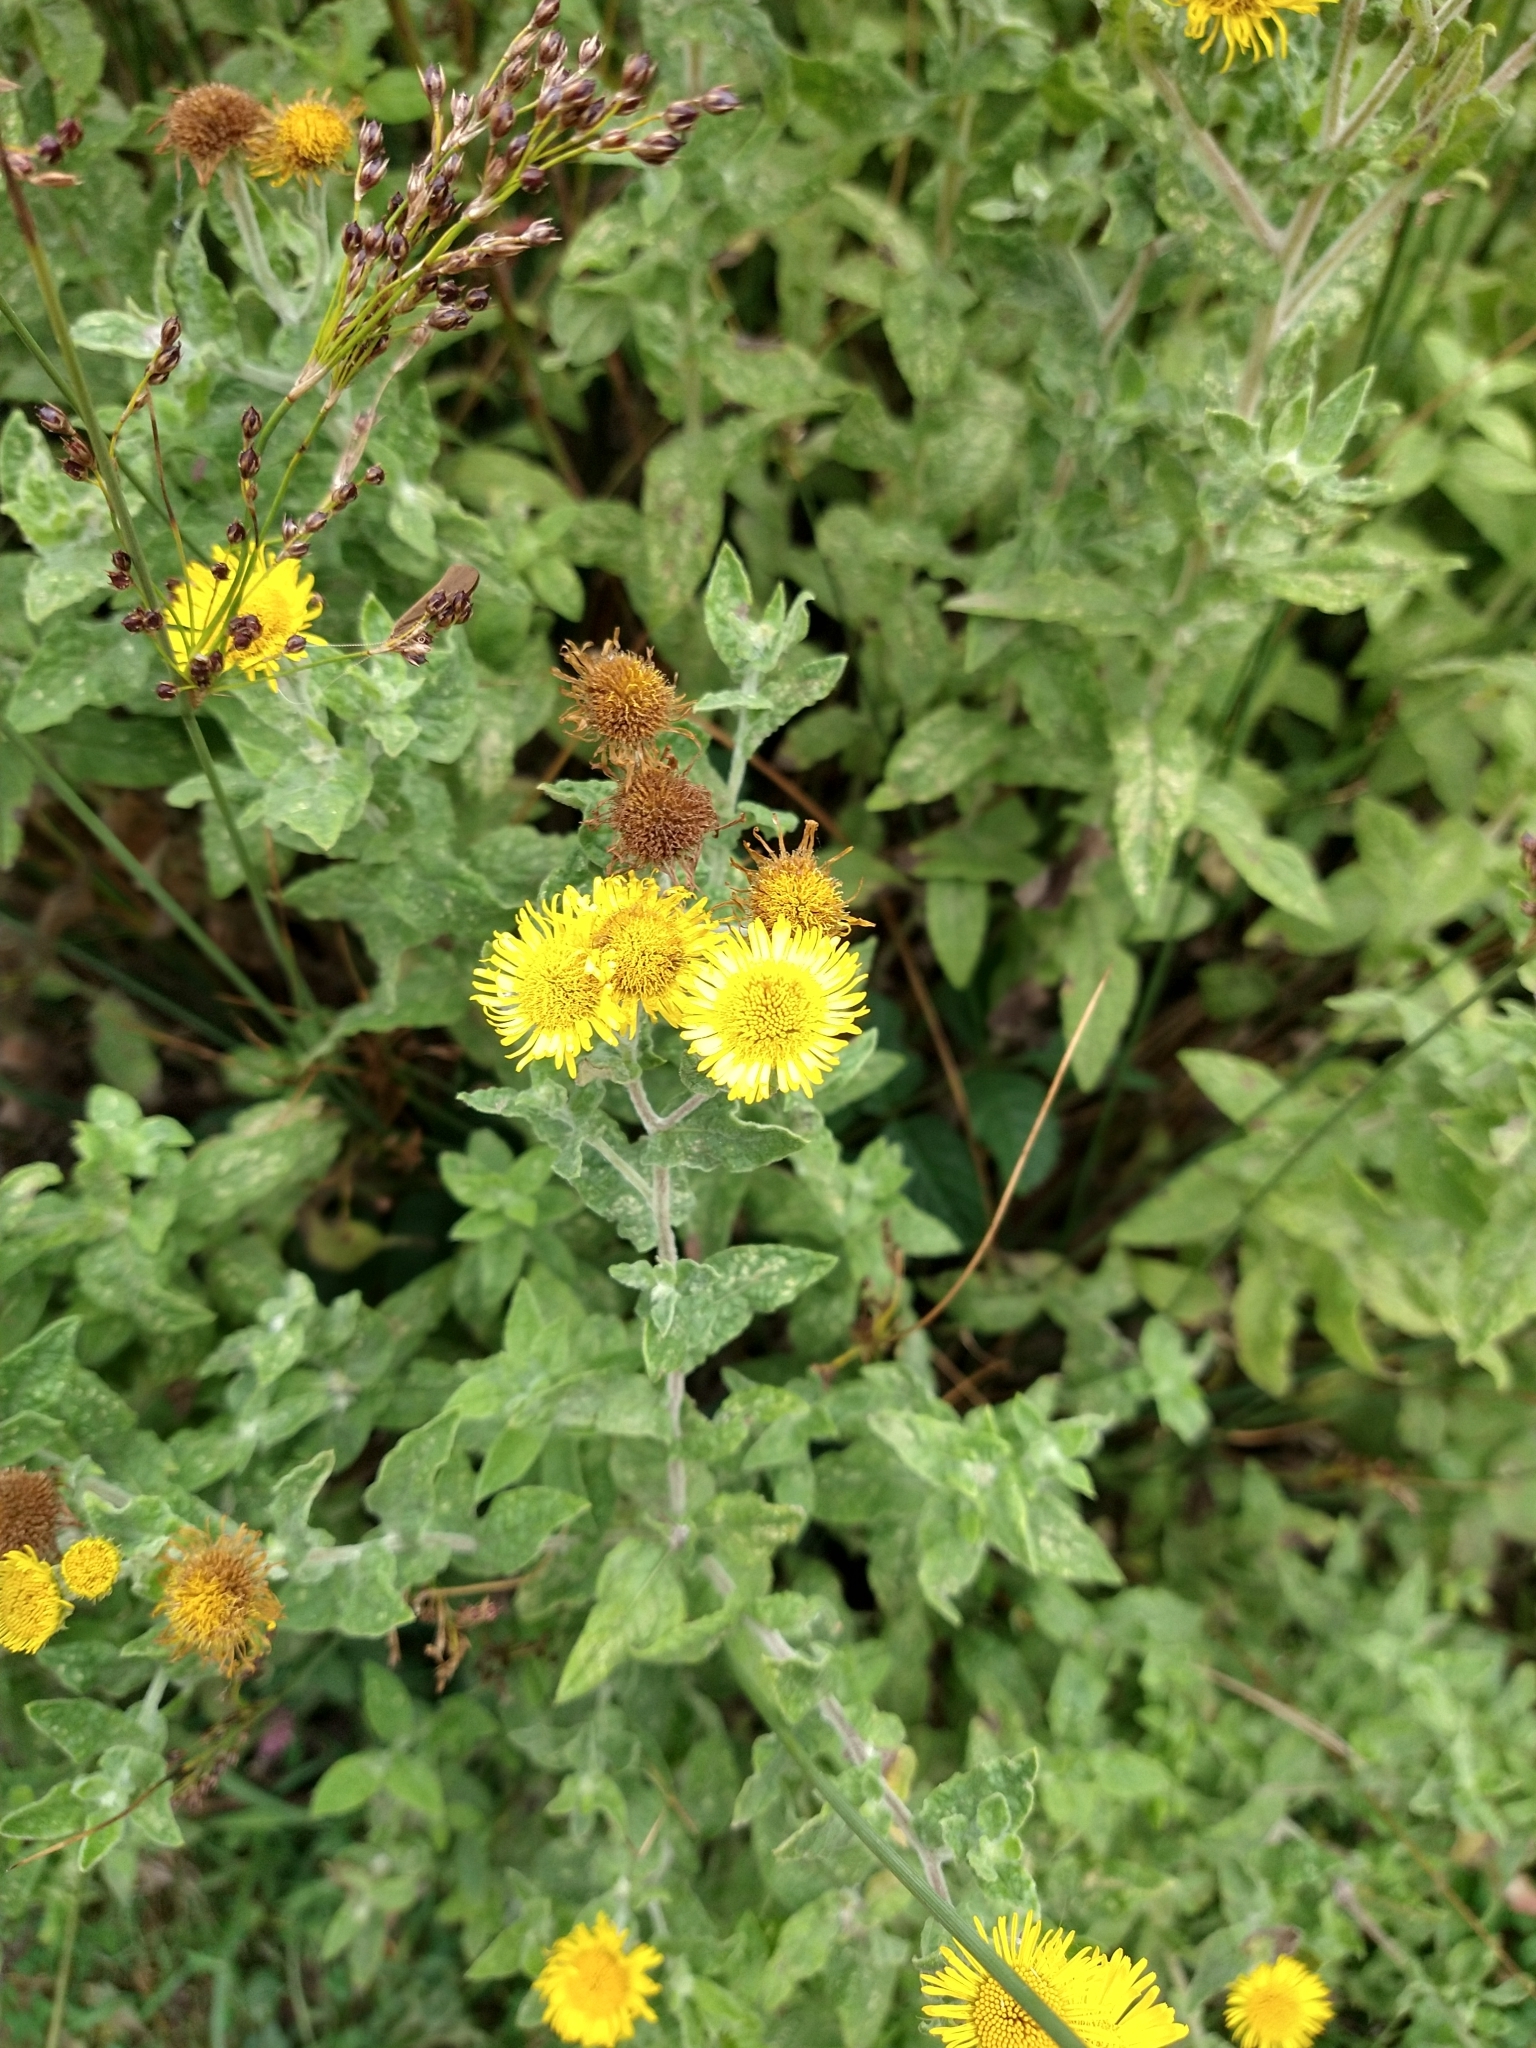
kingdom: Plantae
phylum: Tracheophyta
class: Magnoliopsida
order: Asterales
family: Asteraceae
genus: Pulicaria
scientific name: Pulicaria dysenterica
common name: Common fleabane
